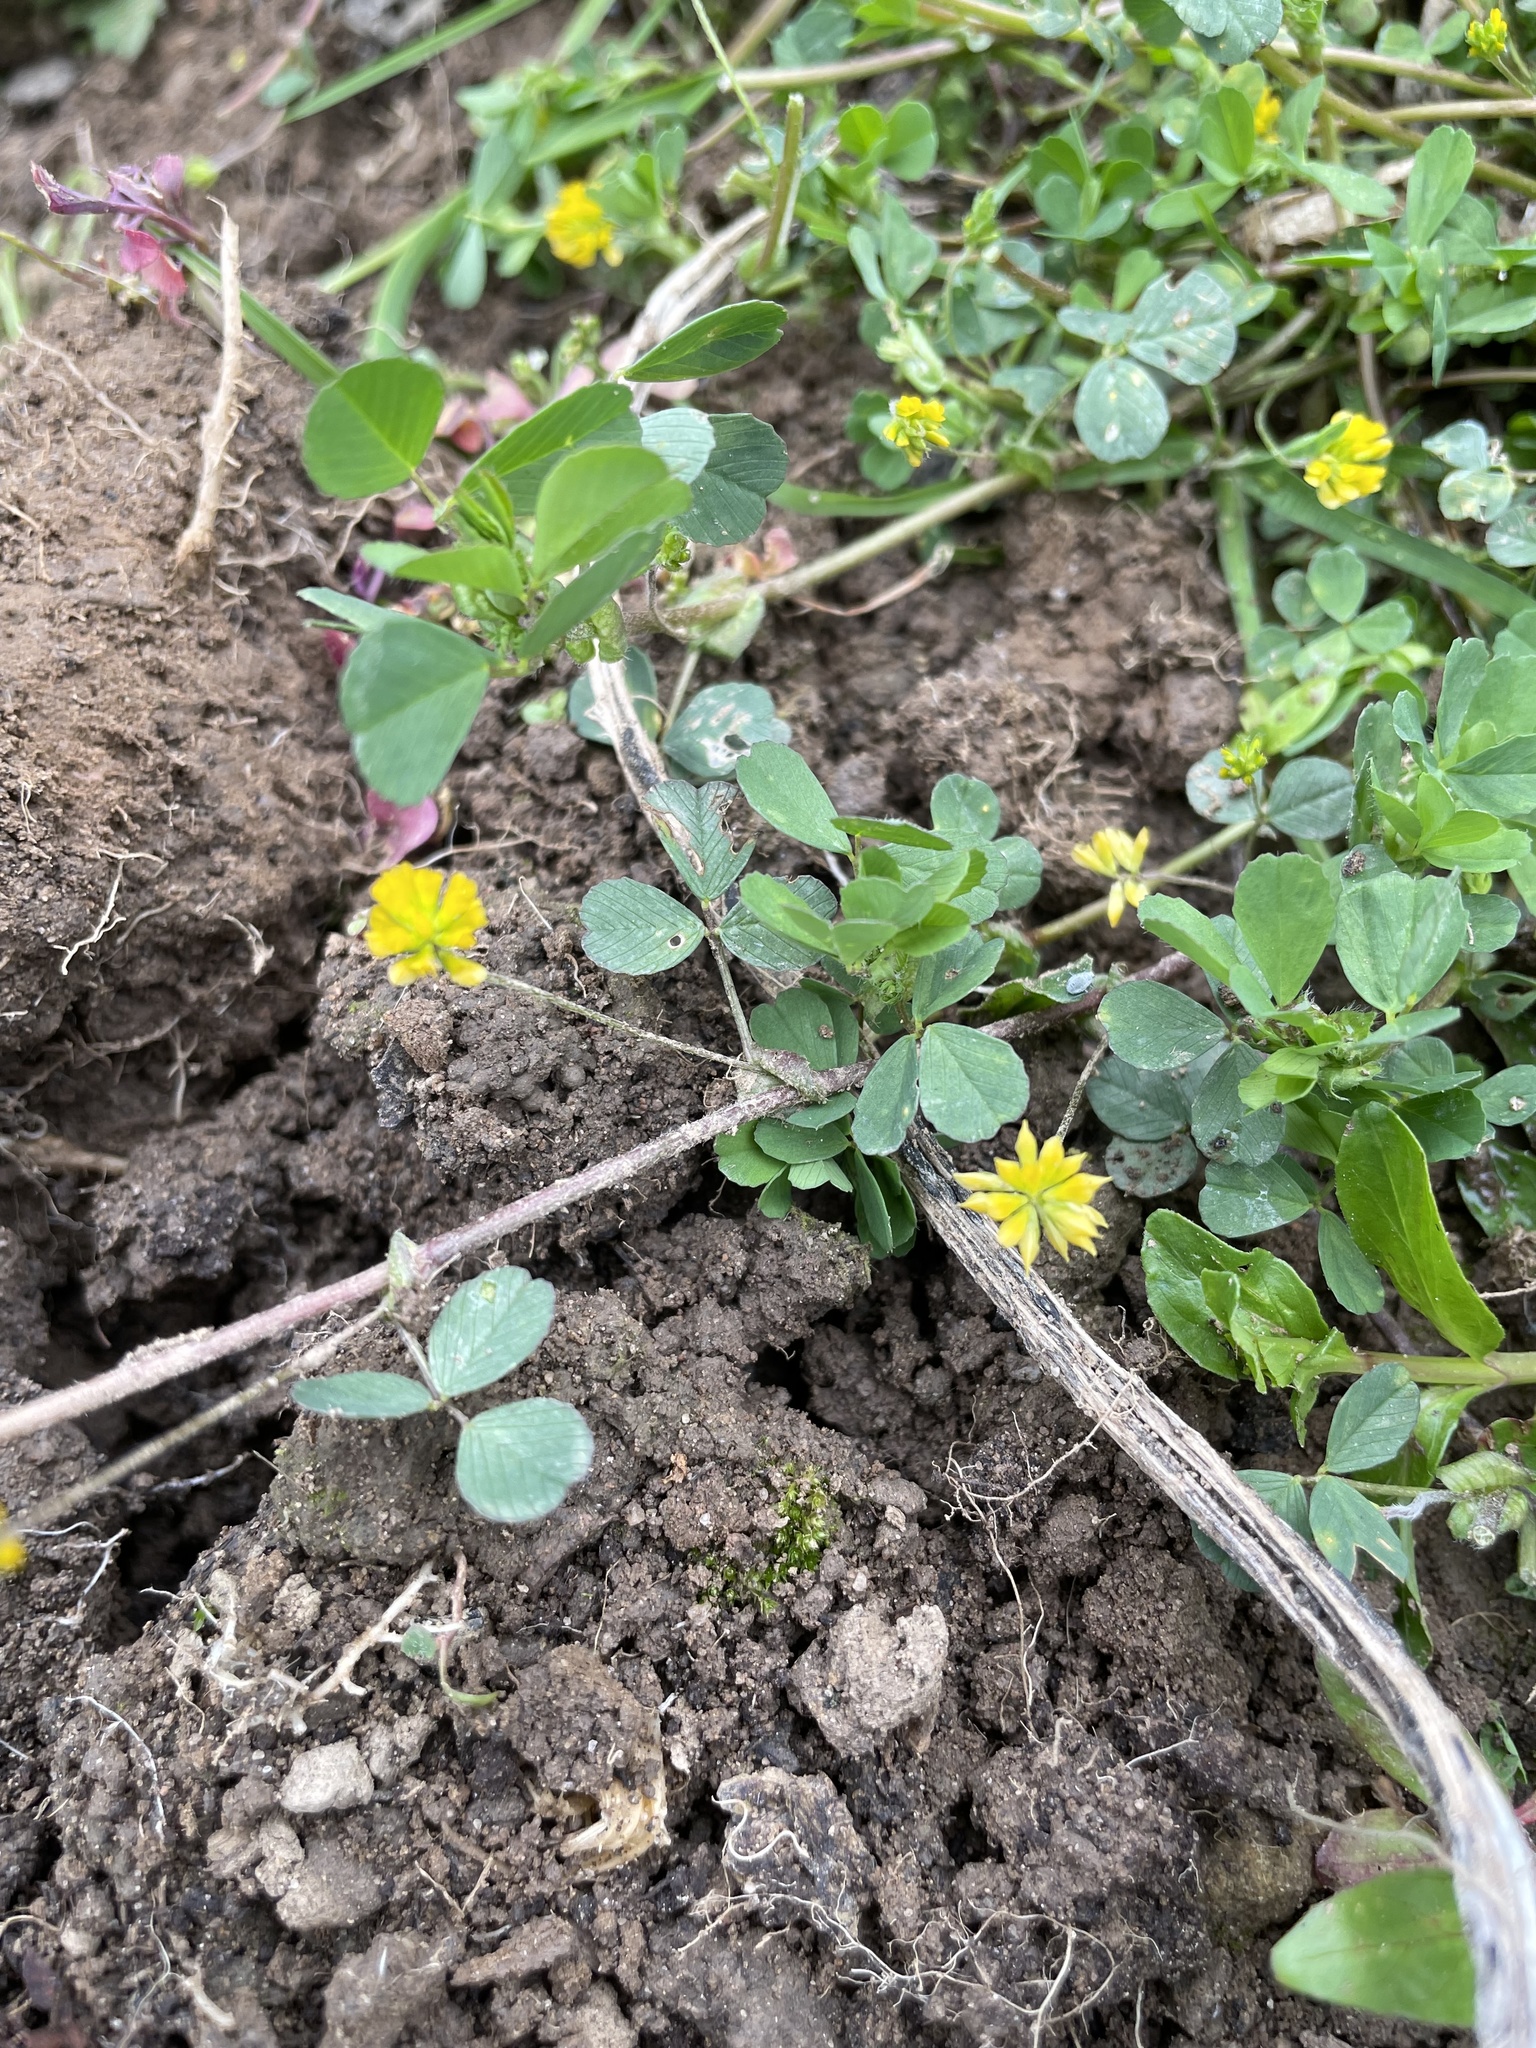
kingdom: Plantae
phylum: Tracheophyta
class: Magnoliopsida
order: Fabales
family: Fabaceae
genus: Trifolium
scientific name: Trifolium dubium
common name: Suckling clover
